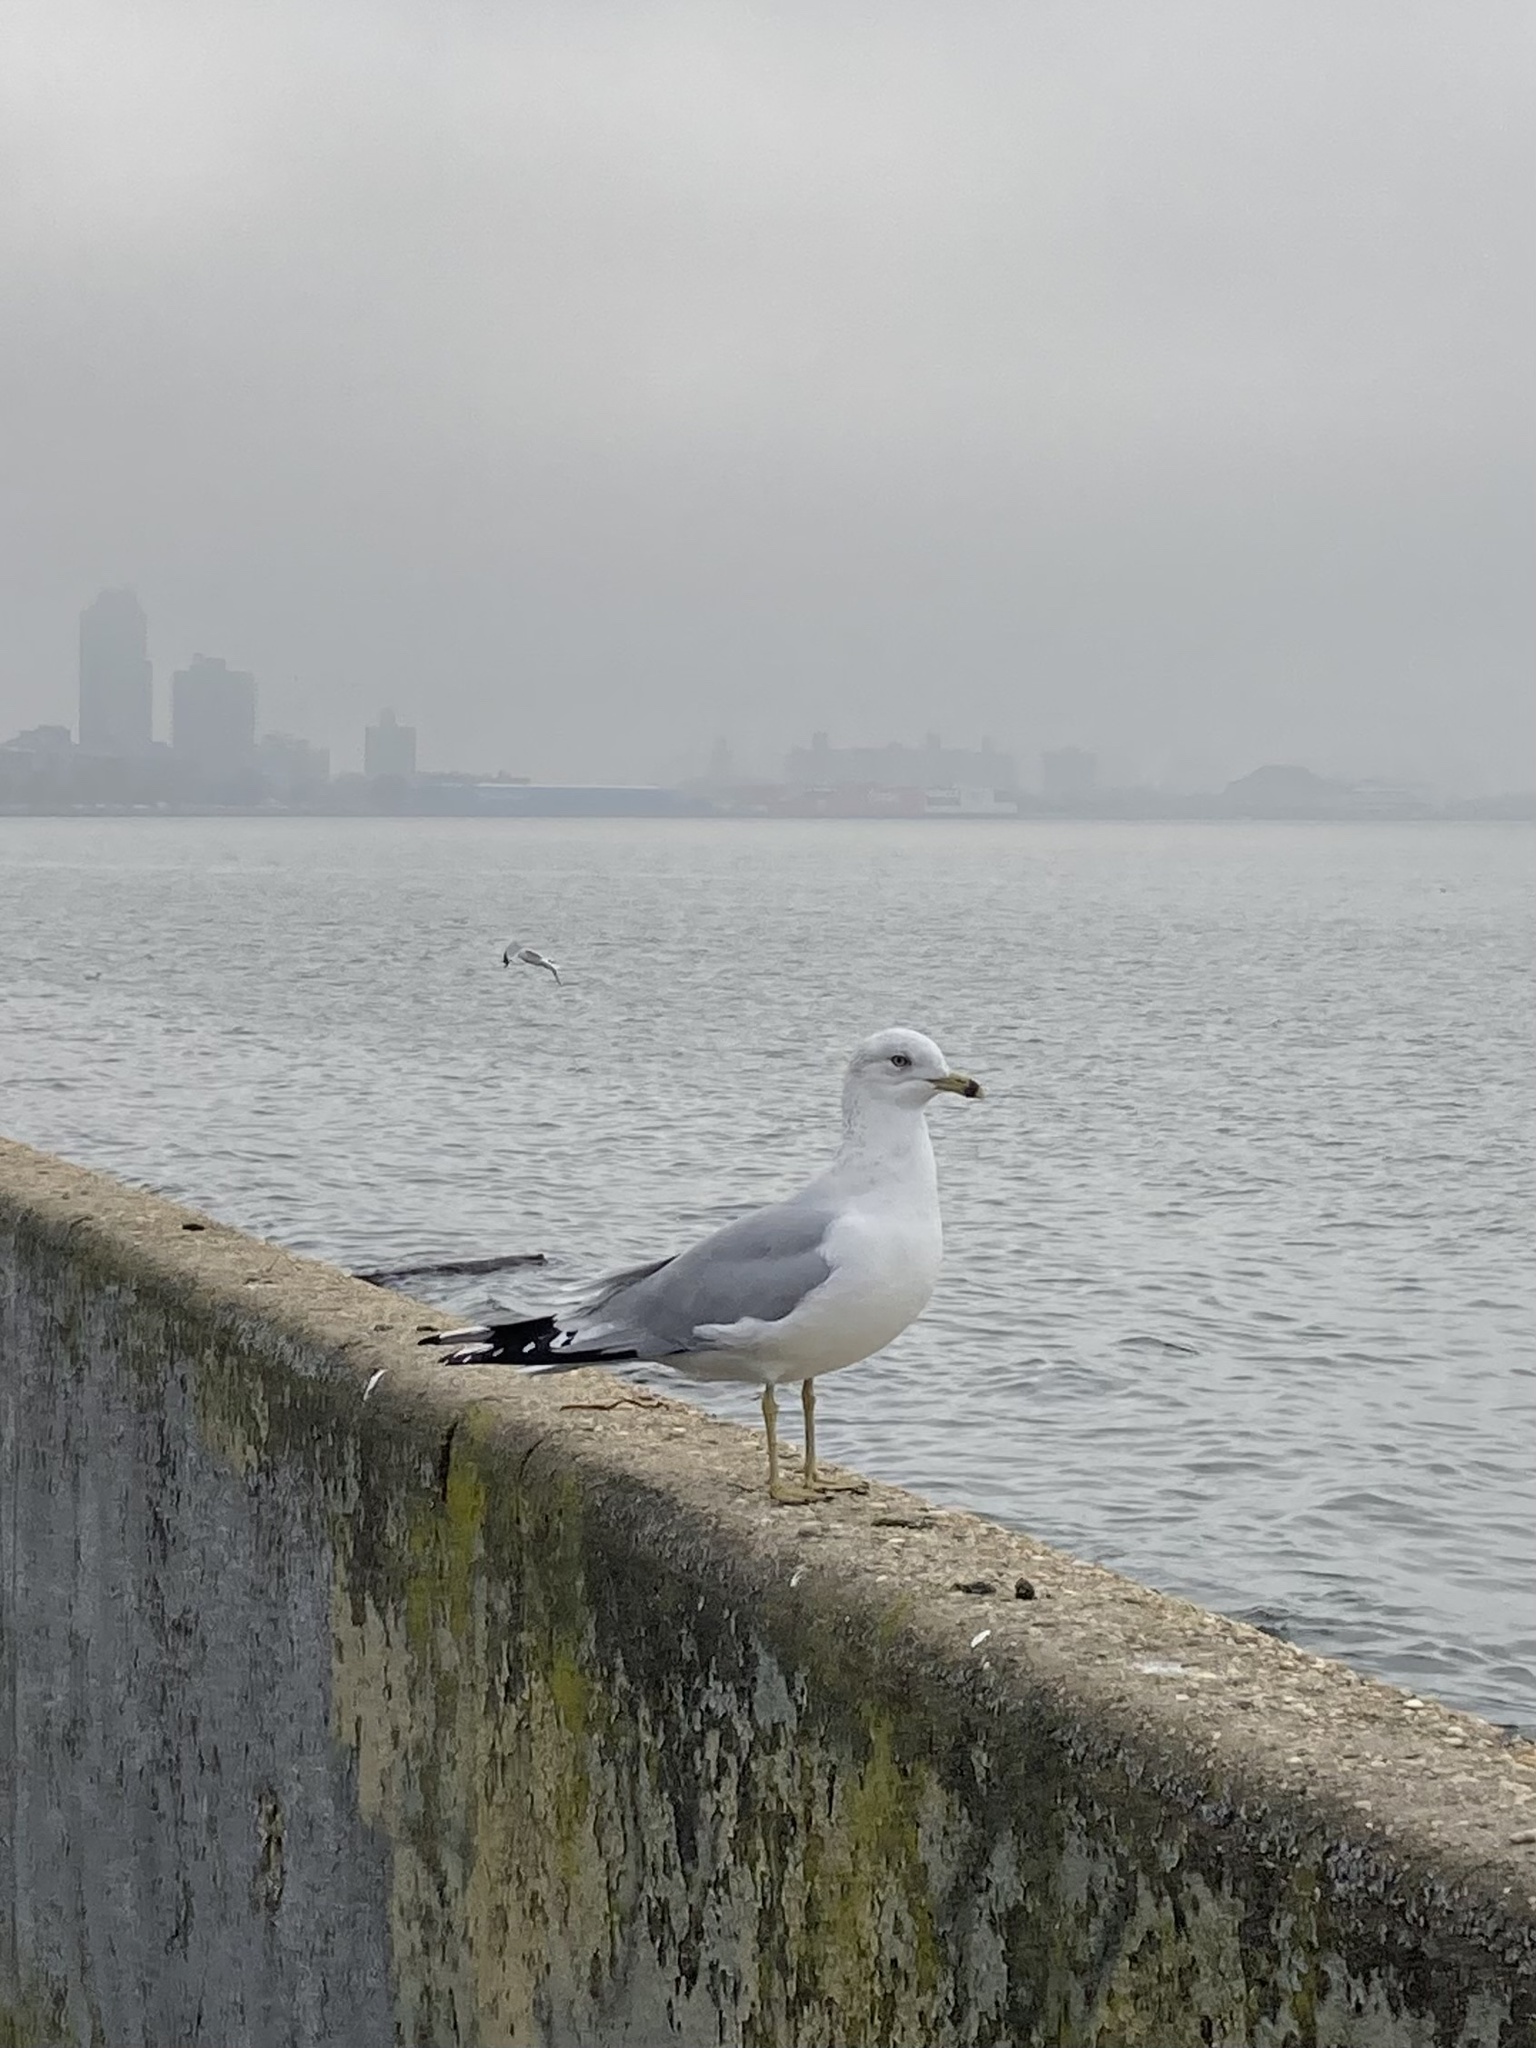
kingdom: Animalia
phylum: Chordata
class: Aves
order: Charadriiformes
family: Laridae
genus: Larus
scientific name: Larus delawarensis
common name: Ring-billed gull
